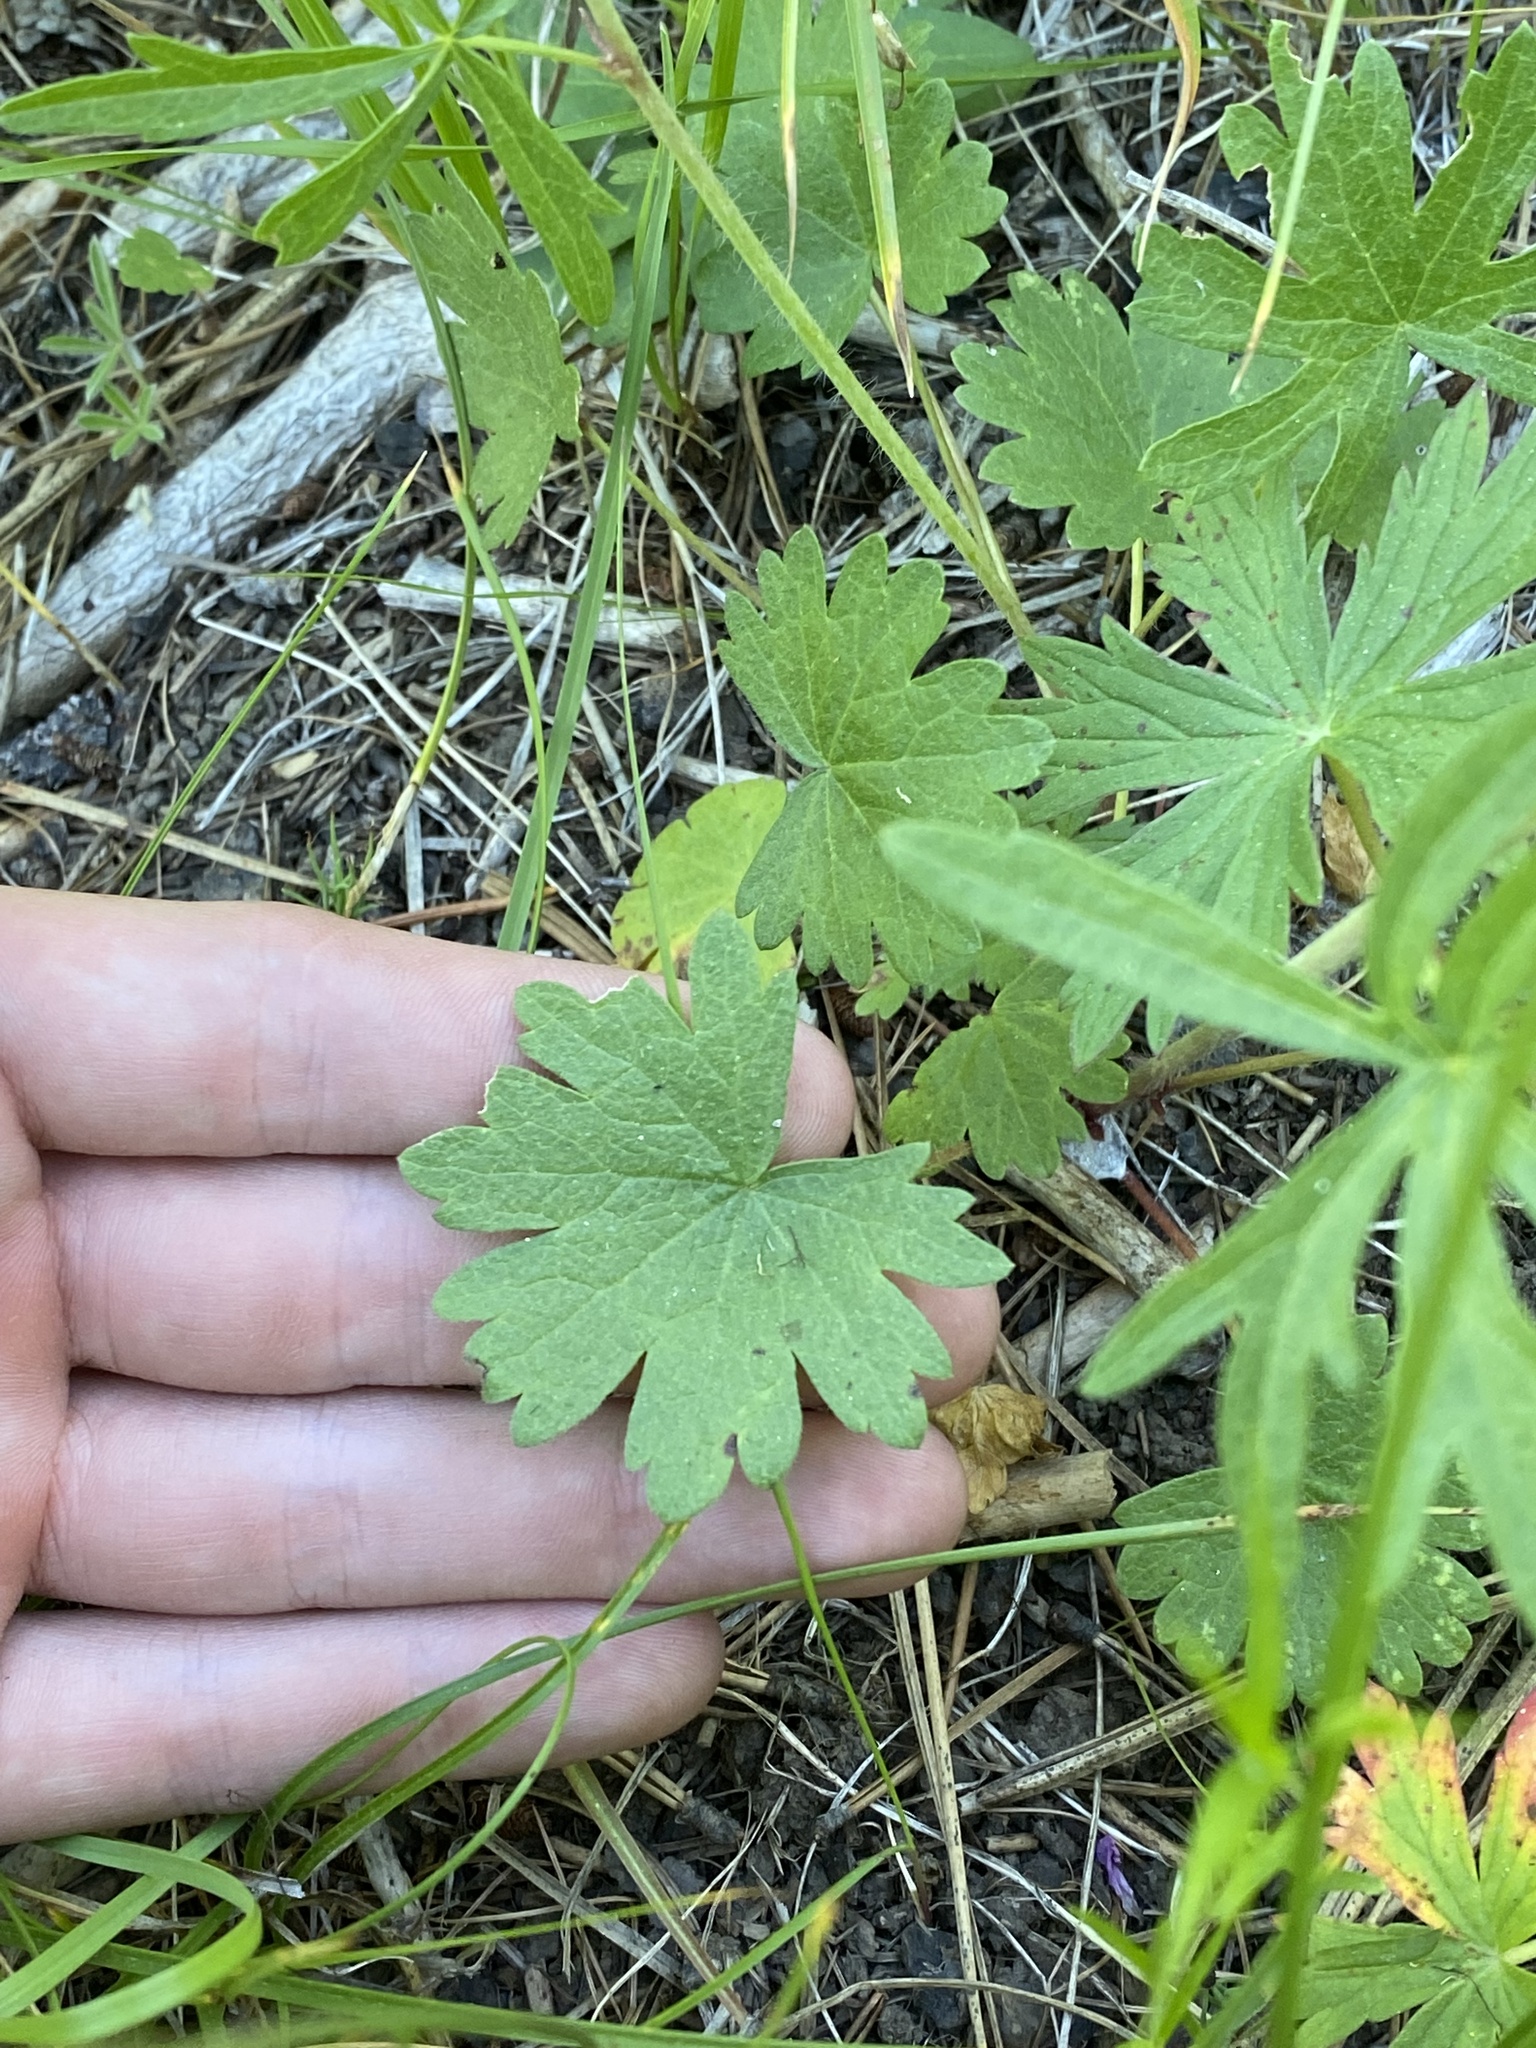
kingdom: Plantae
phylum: Tracheophyta
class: Magnoliopsida
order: Malvales
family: Malvaceae
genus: Sidalcea
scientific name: Sidalcea oregana
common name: Oregon checker-mallow
